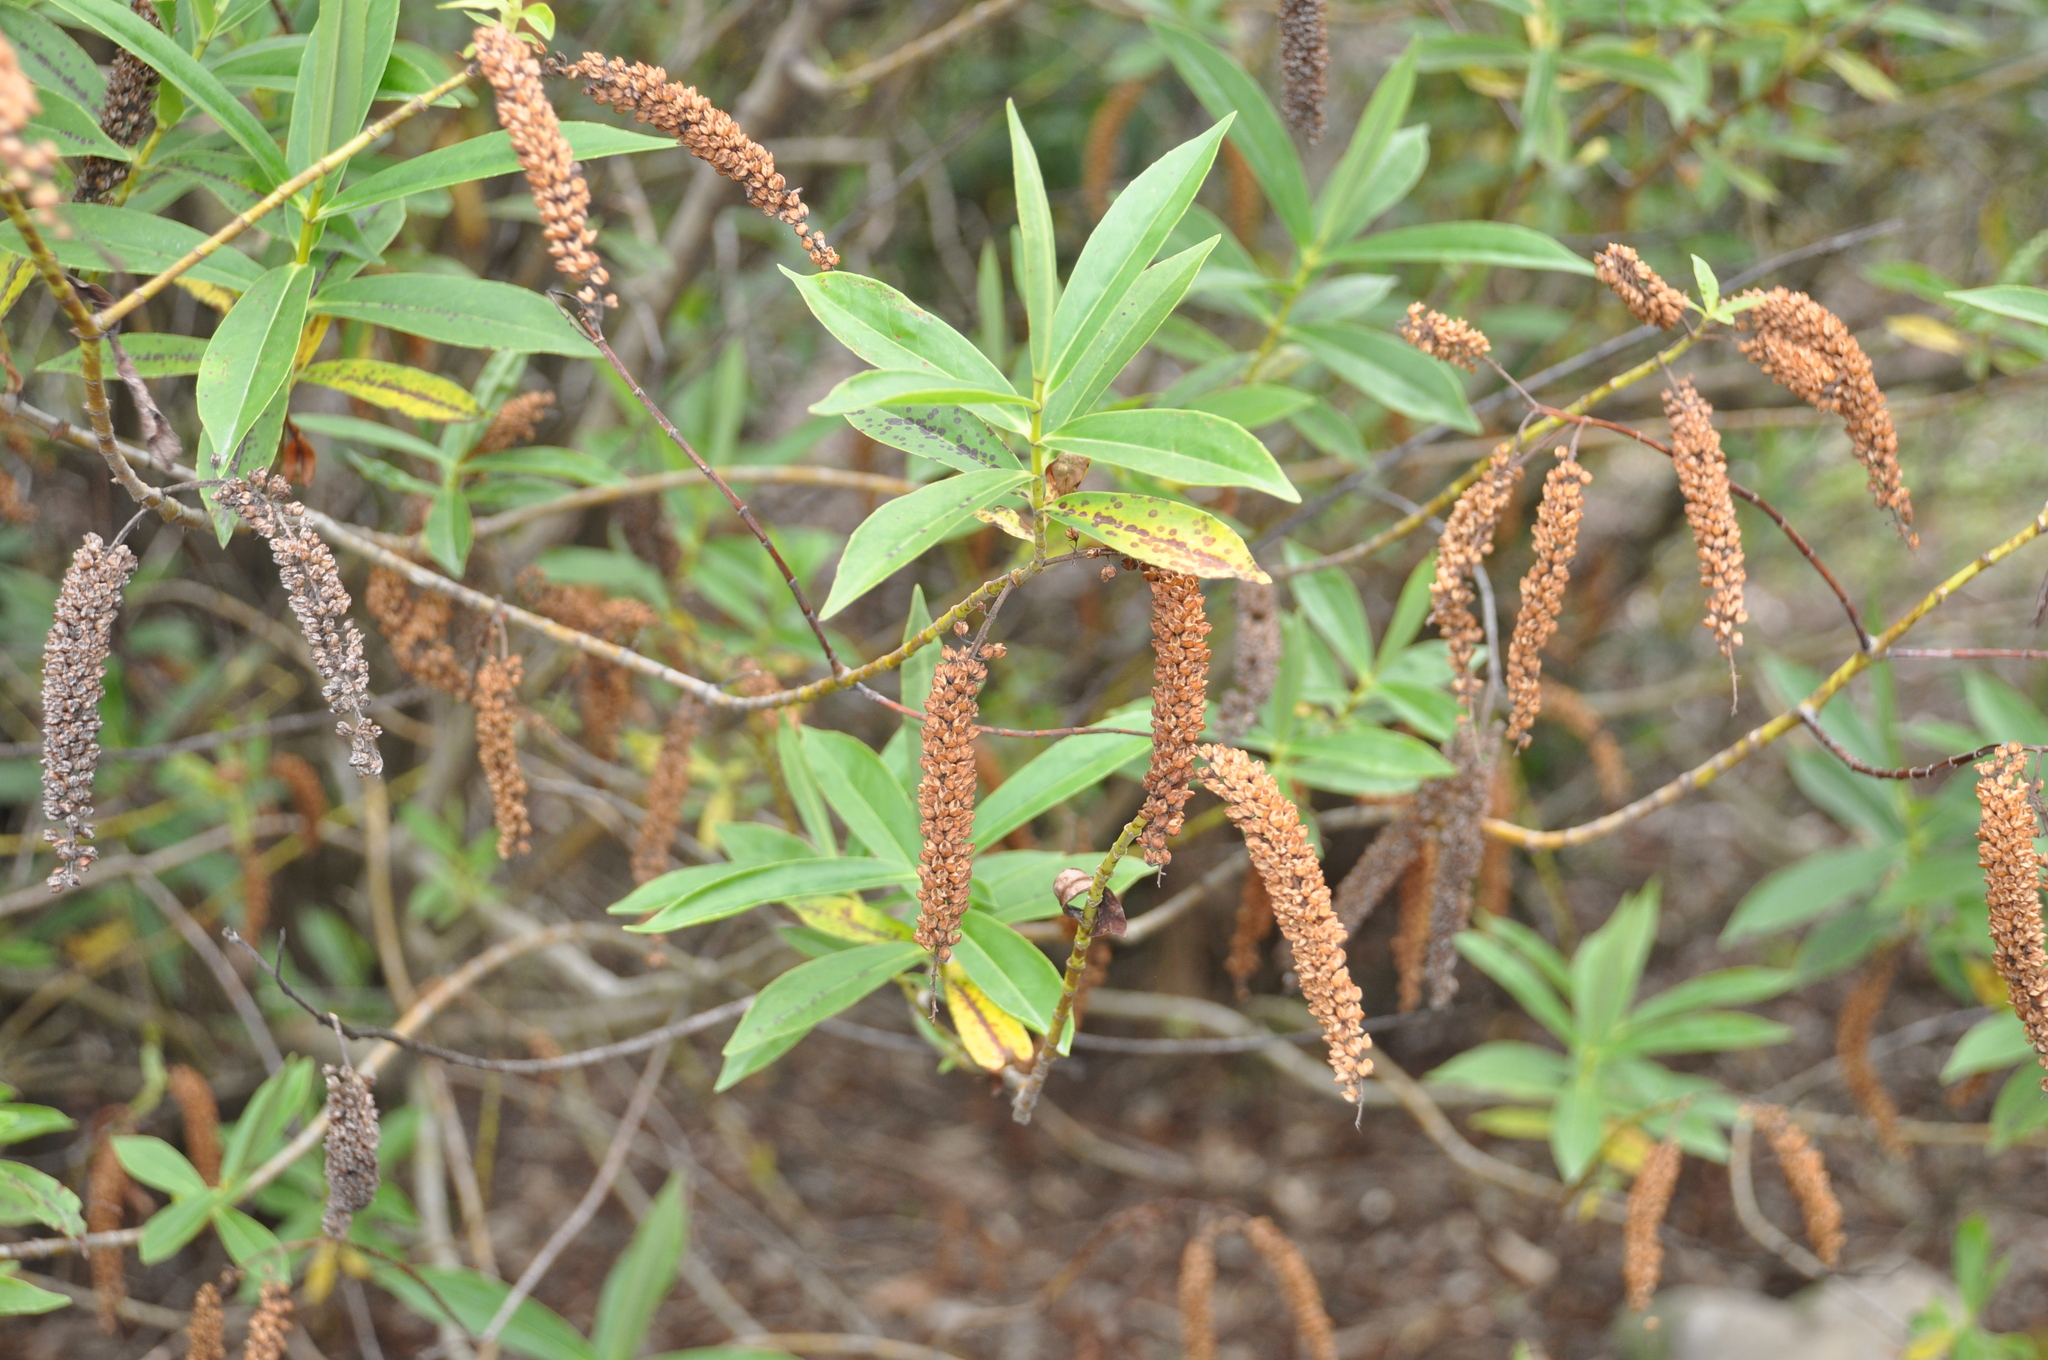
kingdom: Plantae
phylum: Tracheophyta
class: Magnoliopsida
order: Lamiales
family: Plantaginaceae
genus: Veronica
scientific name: Veronica stricta
